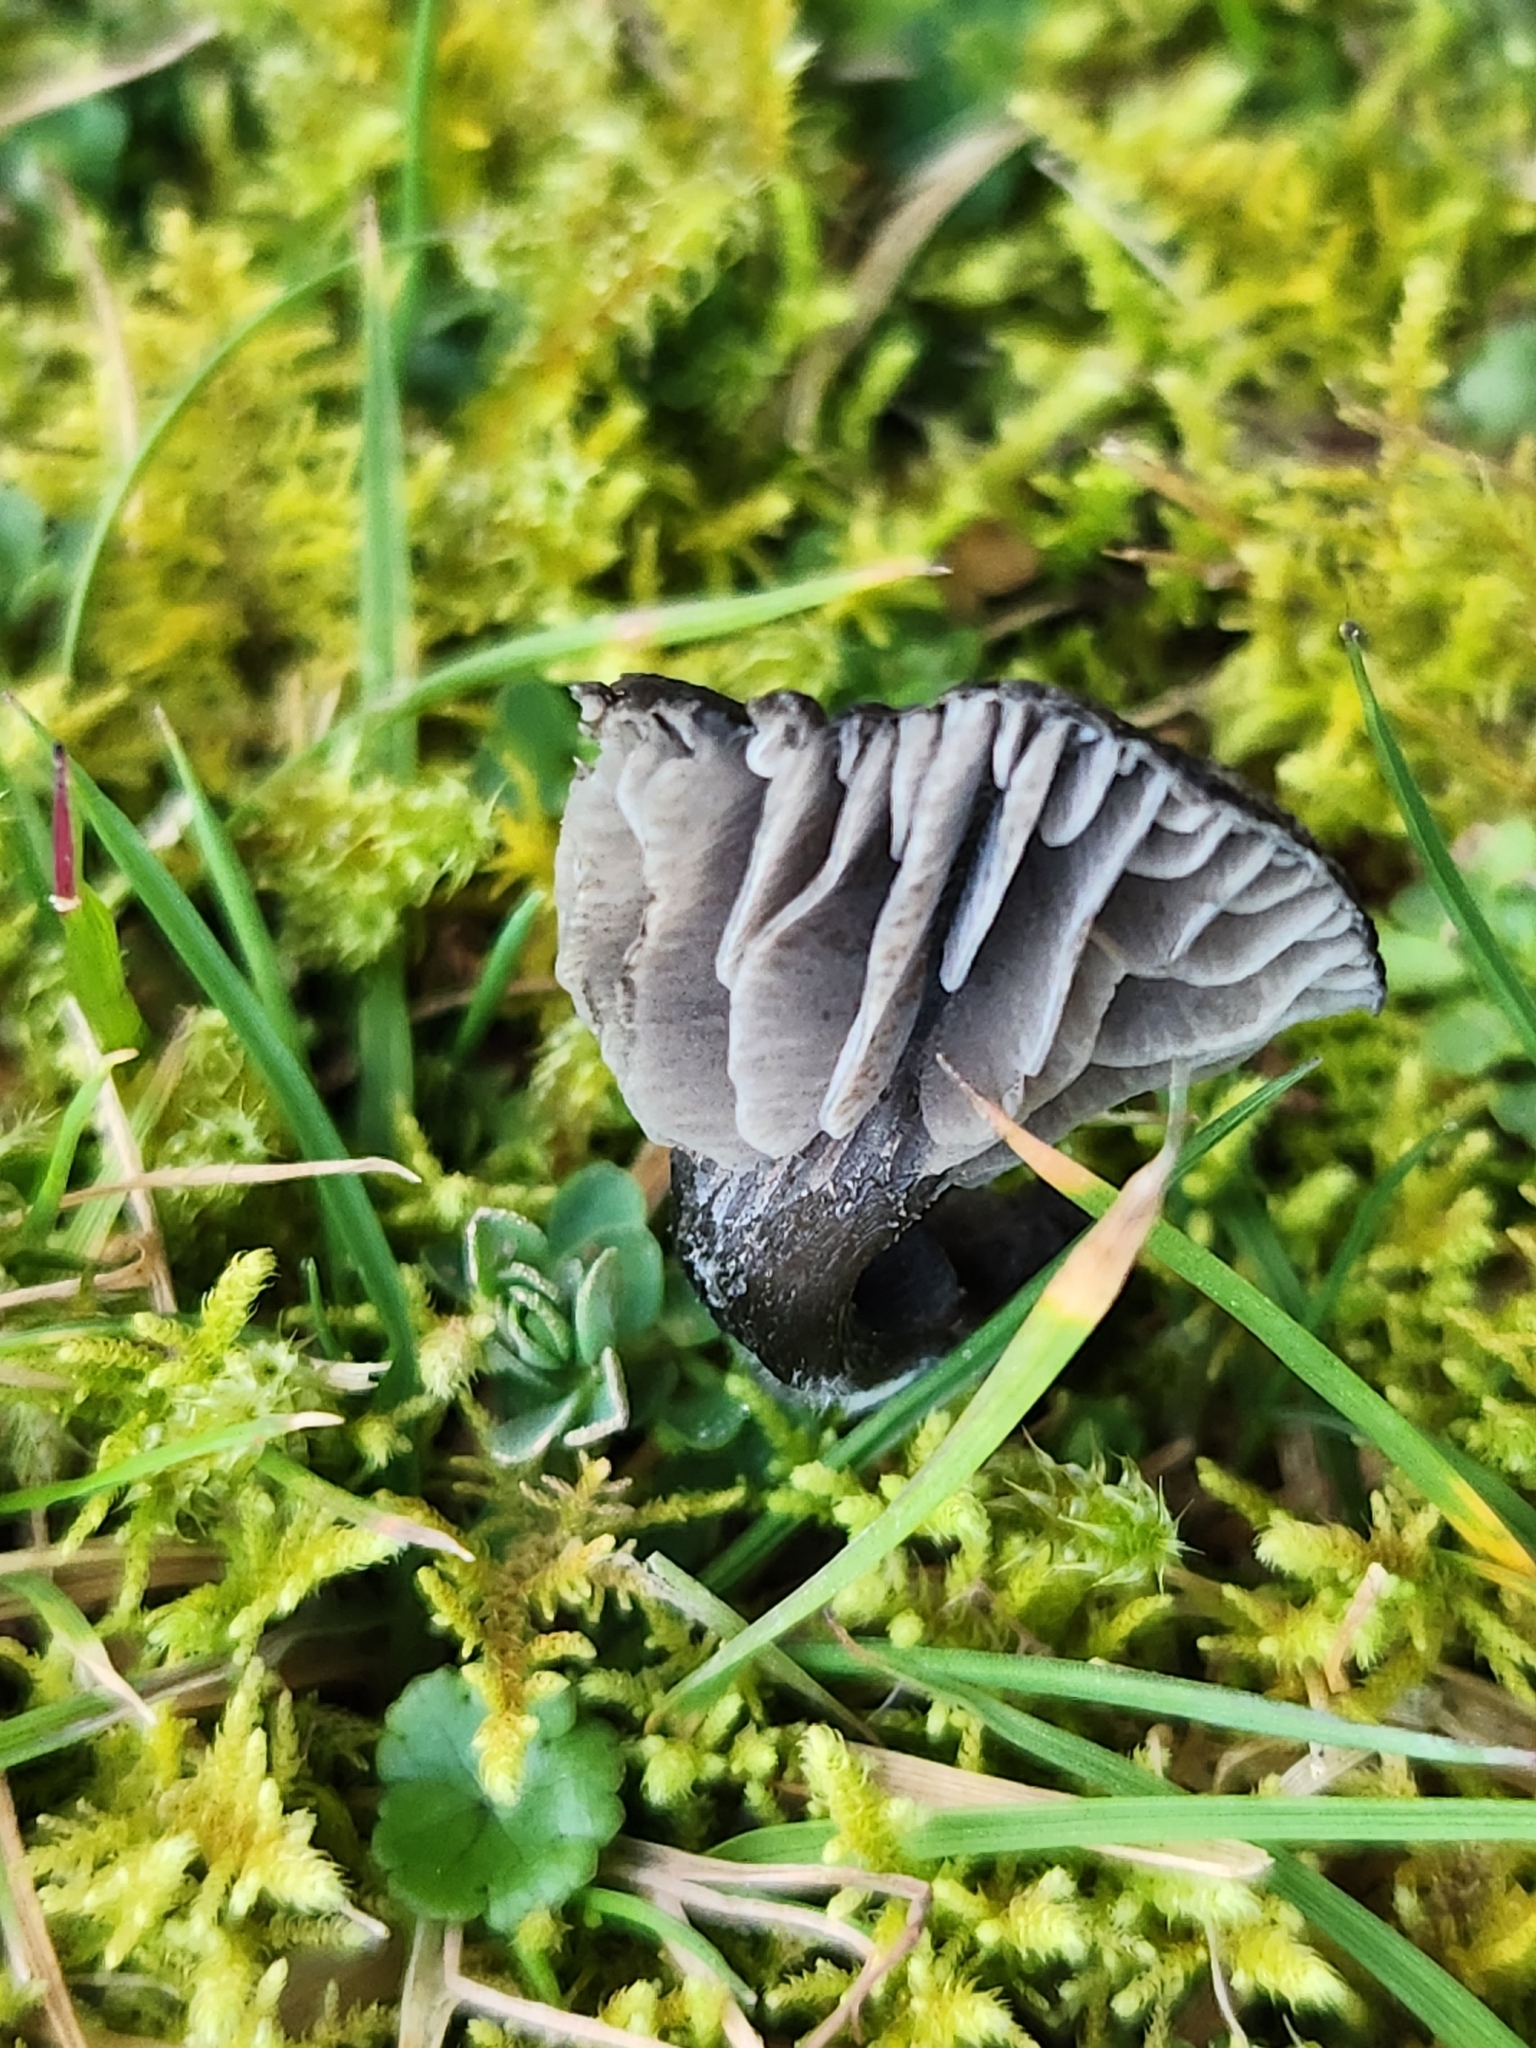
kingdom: Fungi
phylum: Basidiomycota
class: Agaricomycetes
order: Agaricales
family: Entolomataceae
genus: Entoloma
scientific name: Entoloma crinitum
